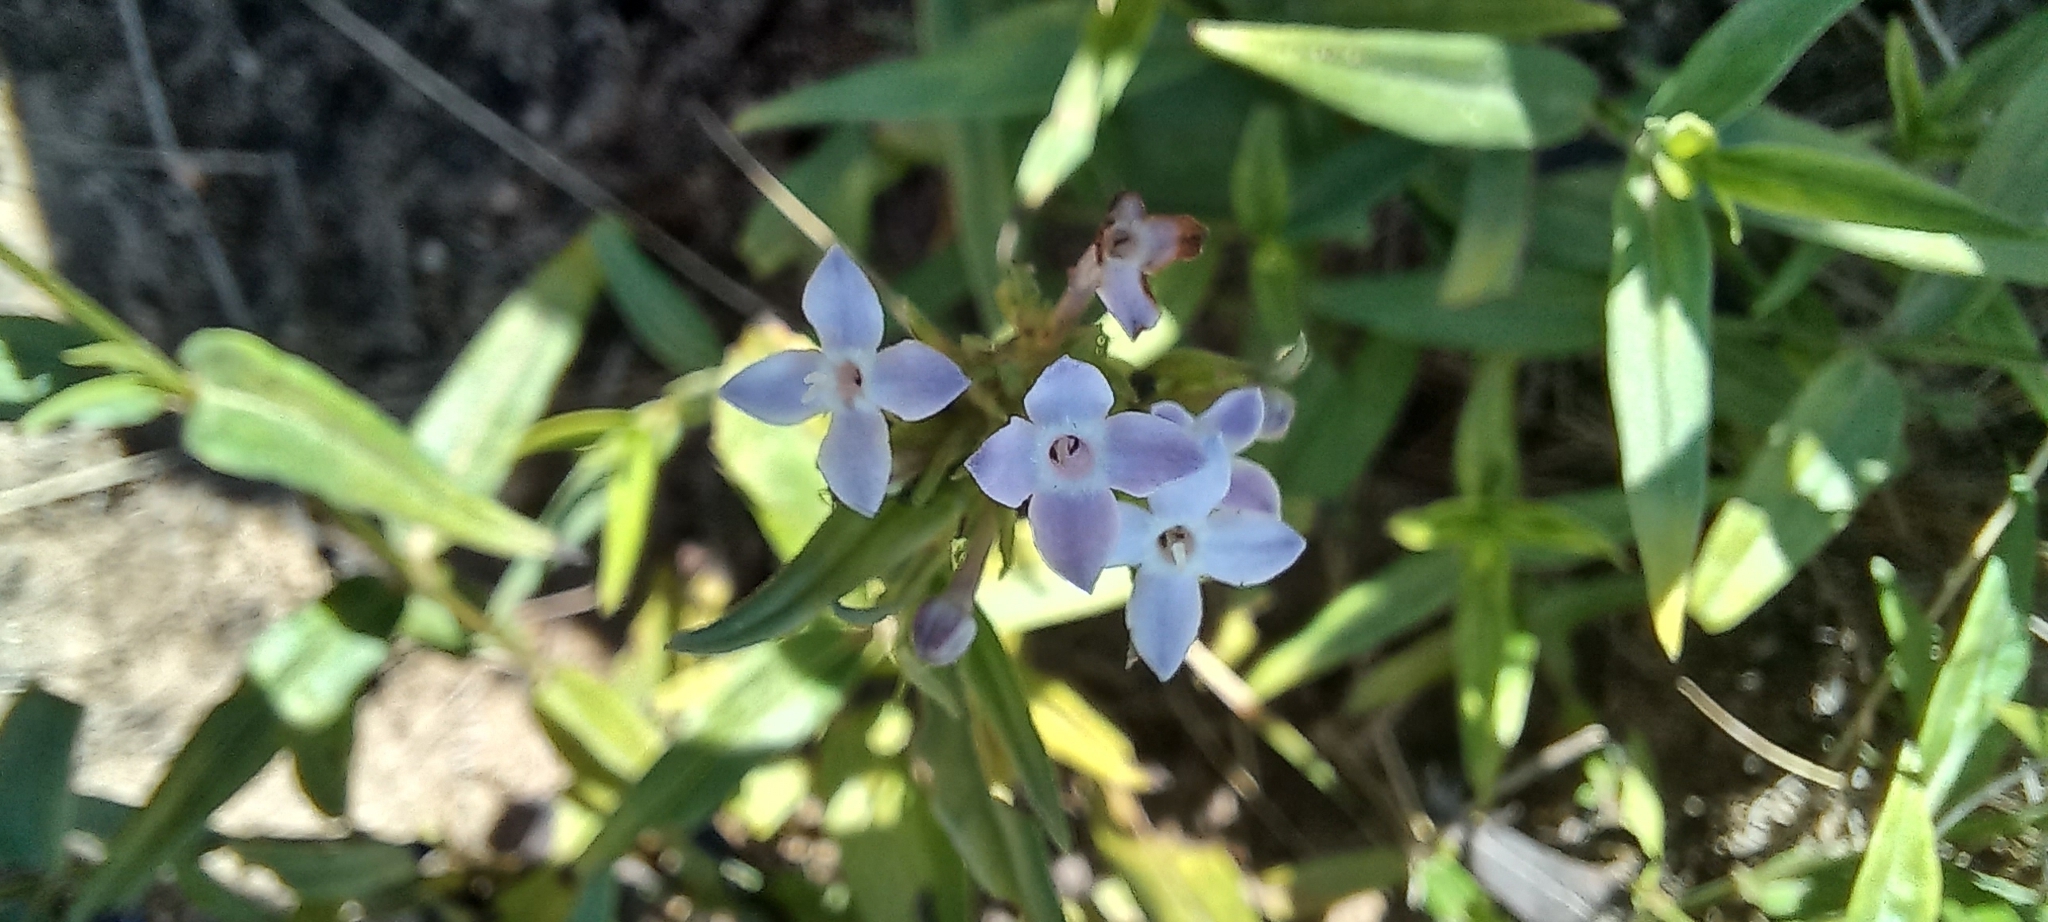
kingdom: Plantae
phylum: Tracheophyta
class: Magnoliopsida
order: Gentianales
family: Rubiaceae
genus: Conostomium
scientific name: Conostomium natalense
